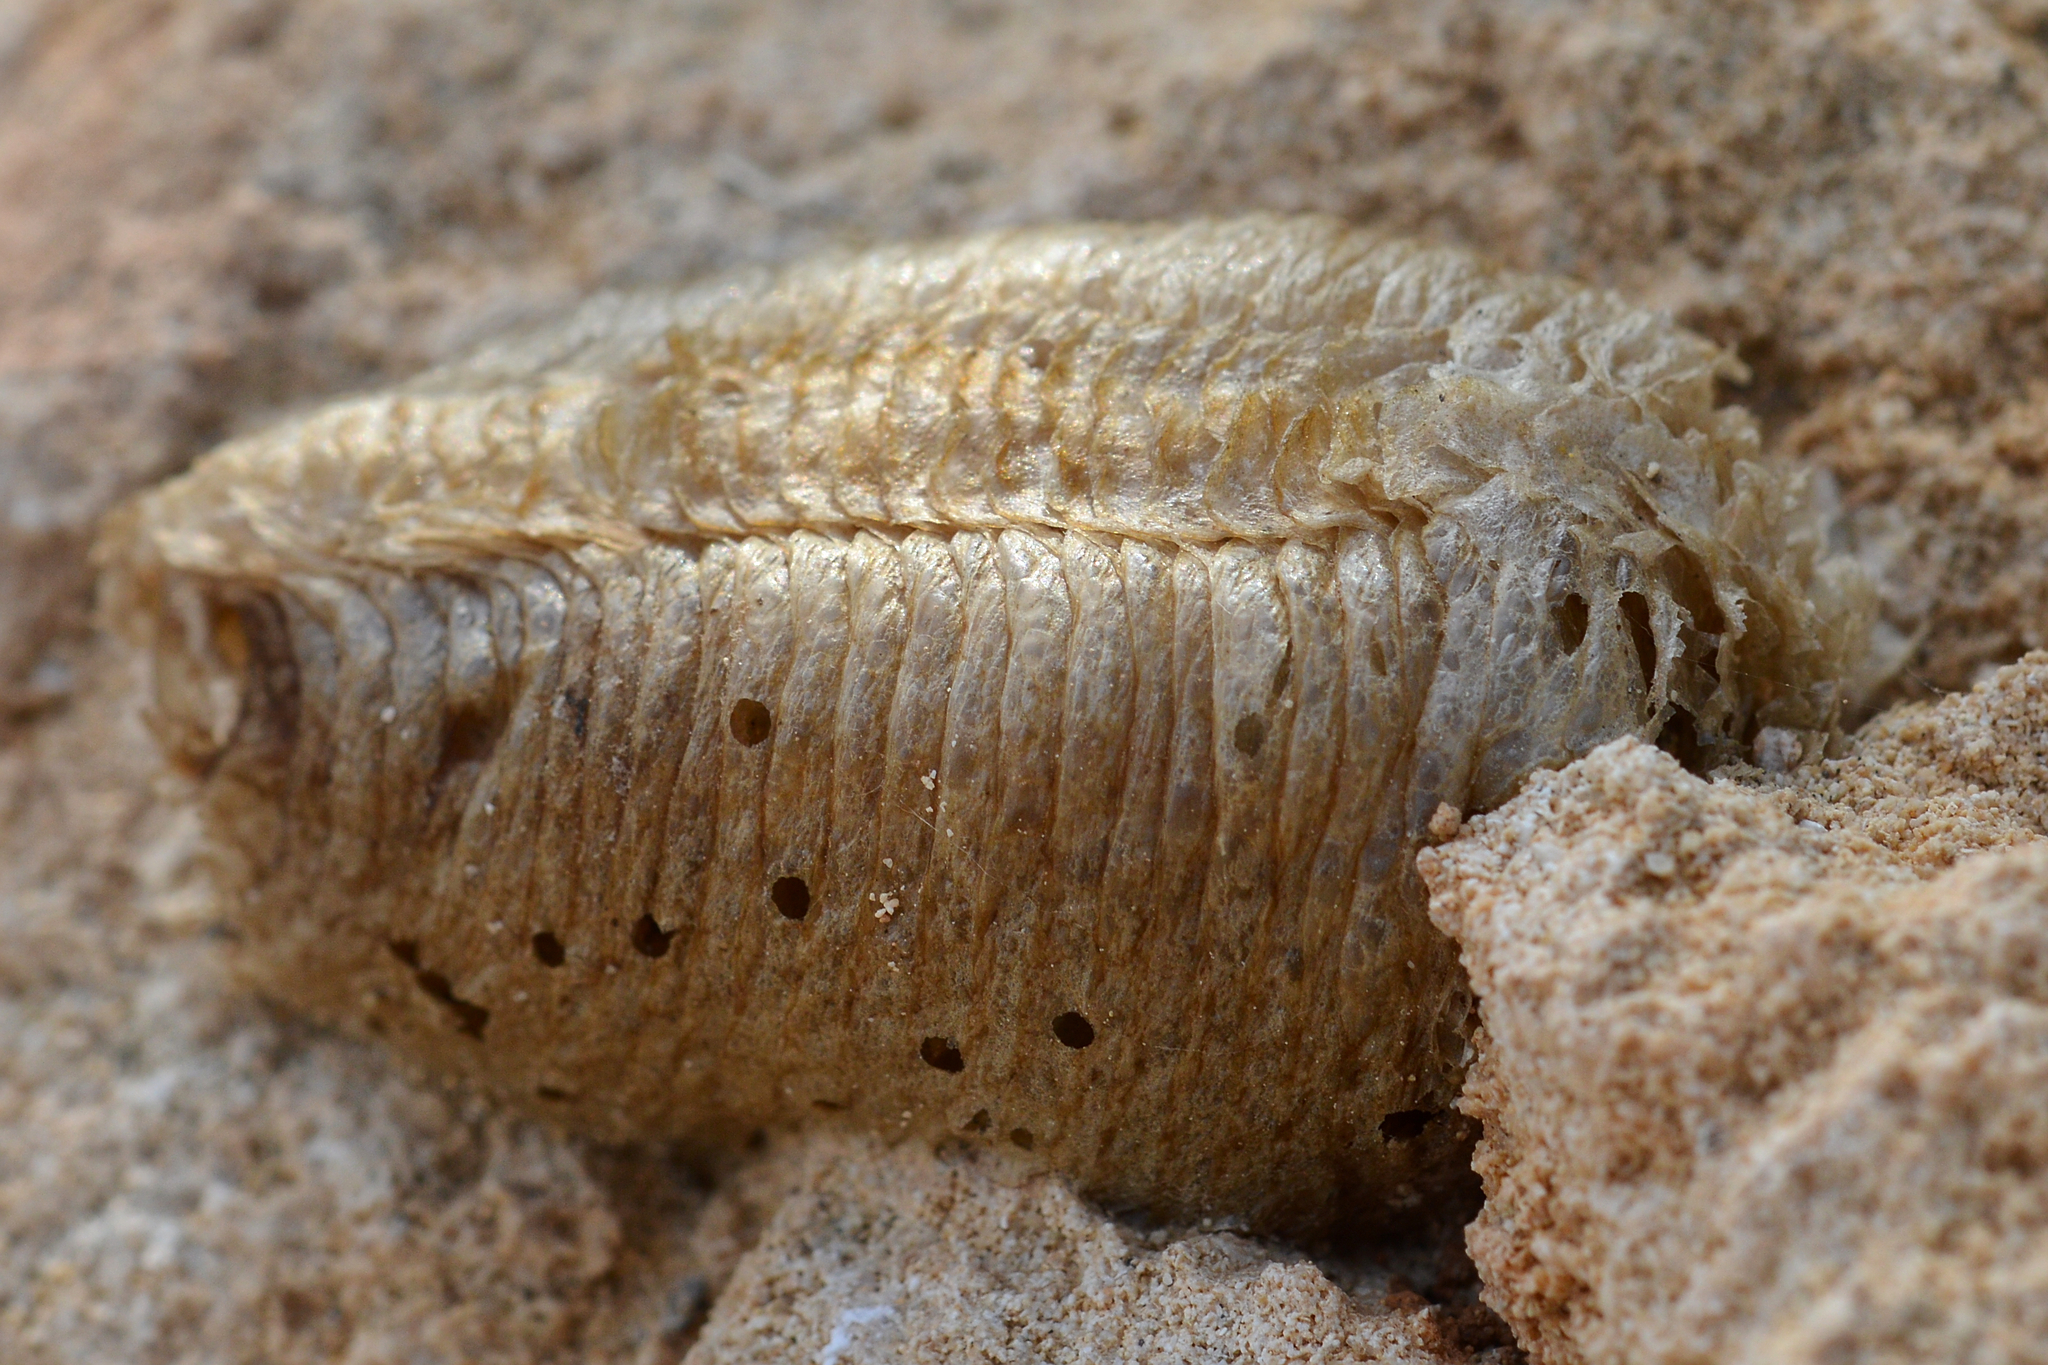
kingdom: Animalia
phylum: Arthropoda
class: Insecta
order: Mantodea
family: Mantidae
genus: Mantis
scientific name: Mantis religiosa
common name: Praying mantis
